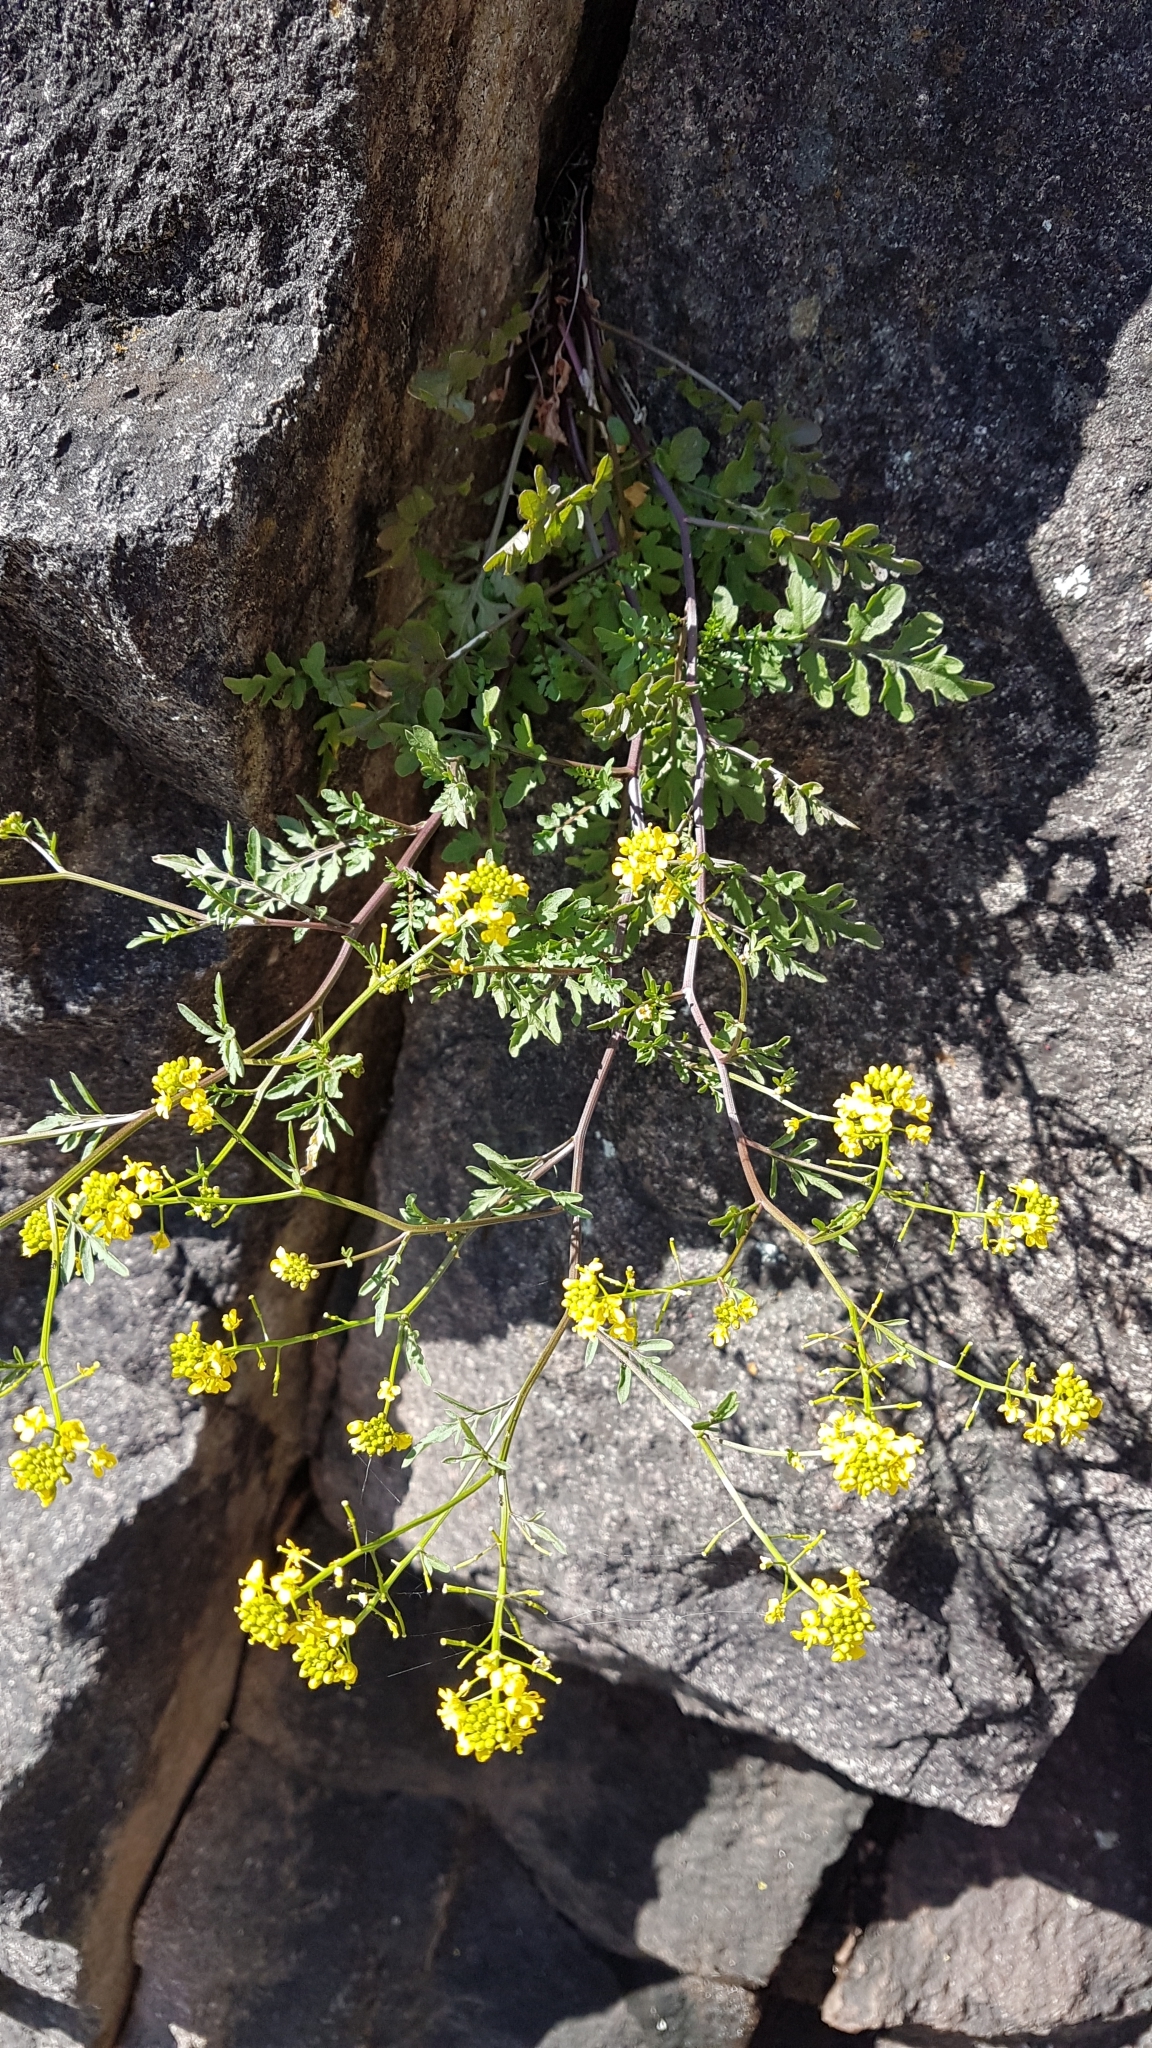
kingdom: Plantae
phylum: Tracheophyta
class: Magnoliopsida
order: Brassicales
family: Brassicaceae
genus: Rorippa
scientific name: Rorippa sylvestris
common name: Creeping yellowcress
